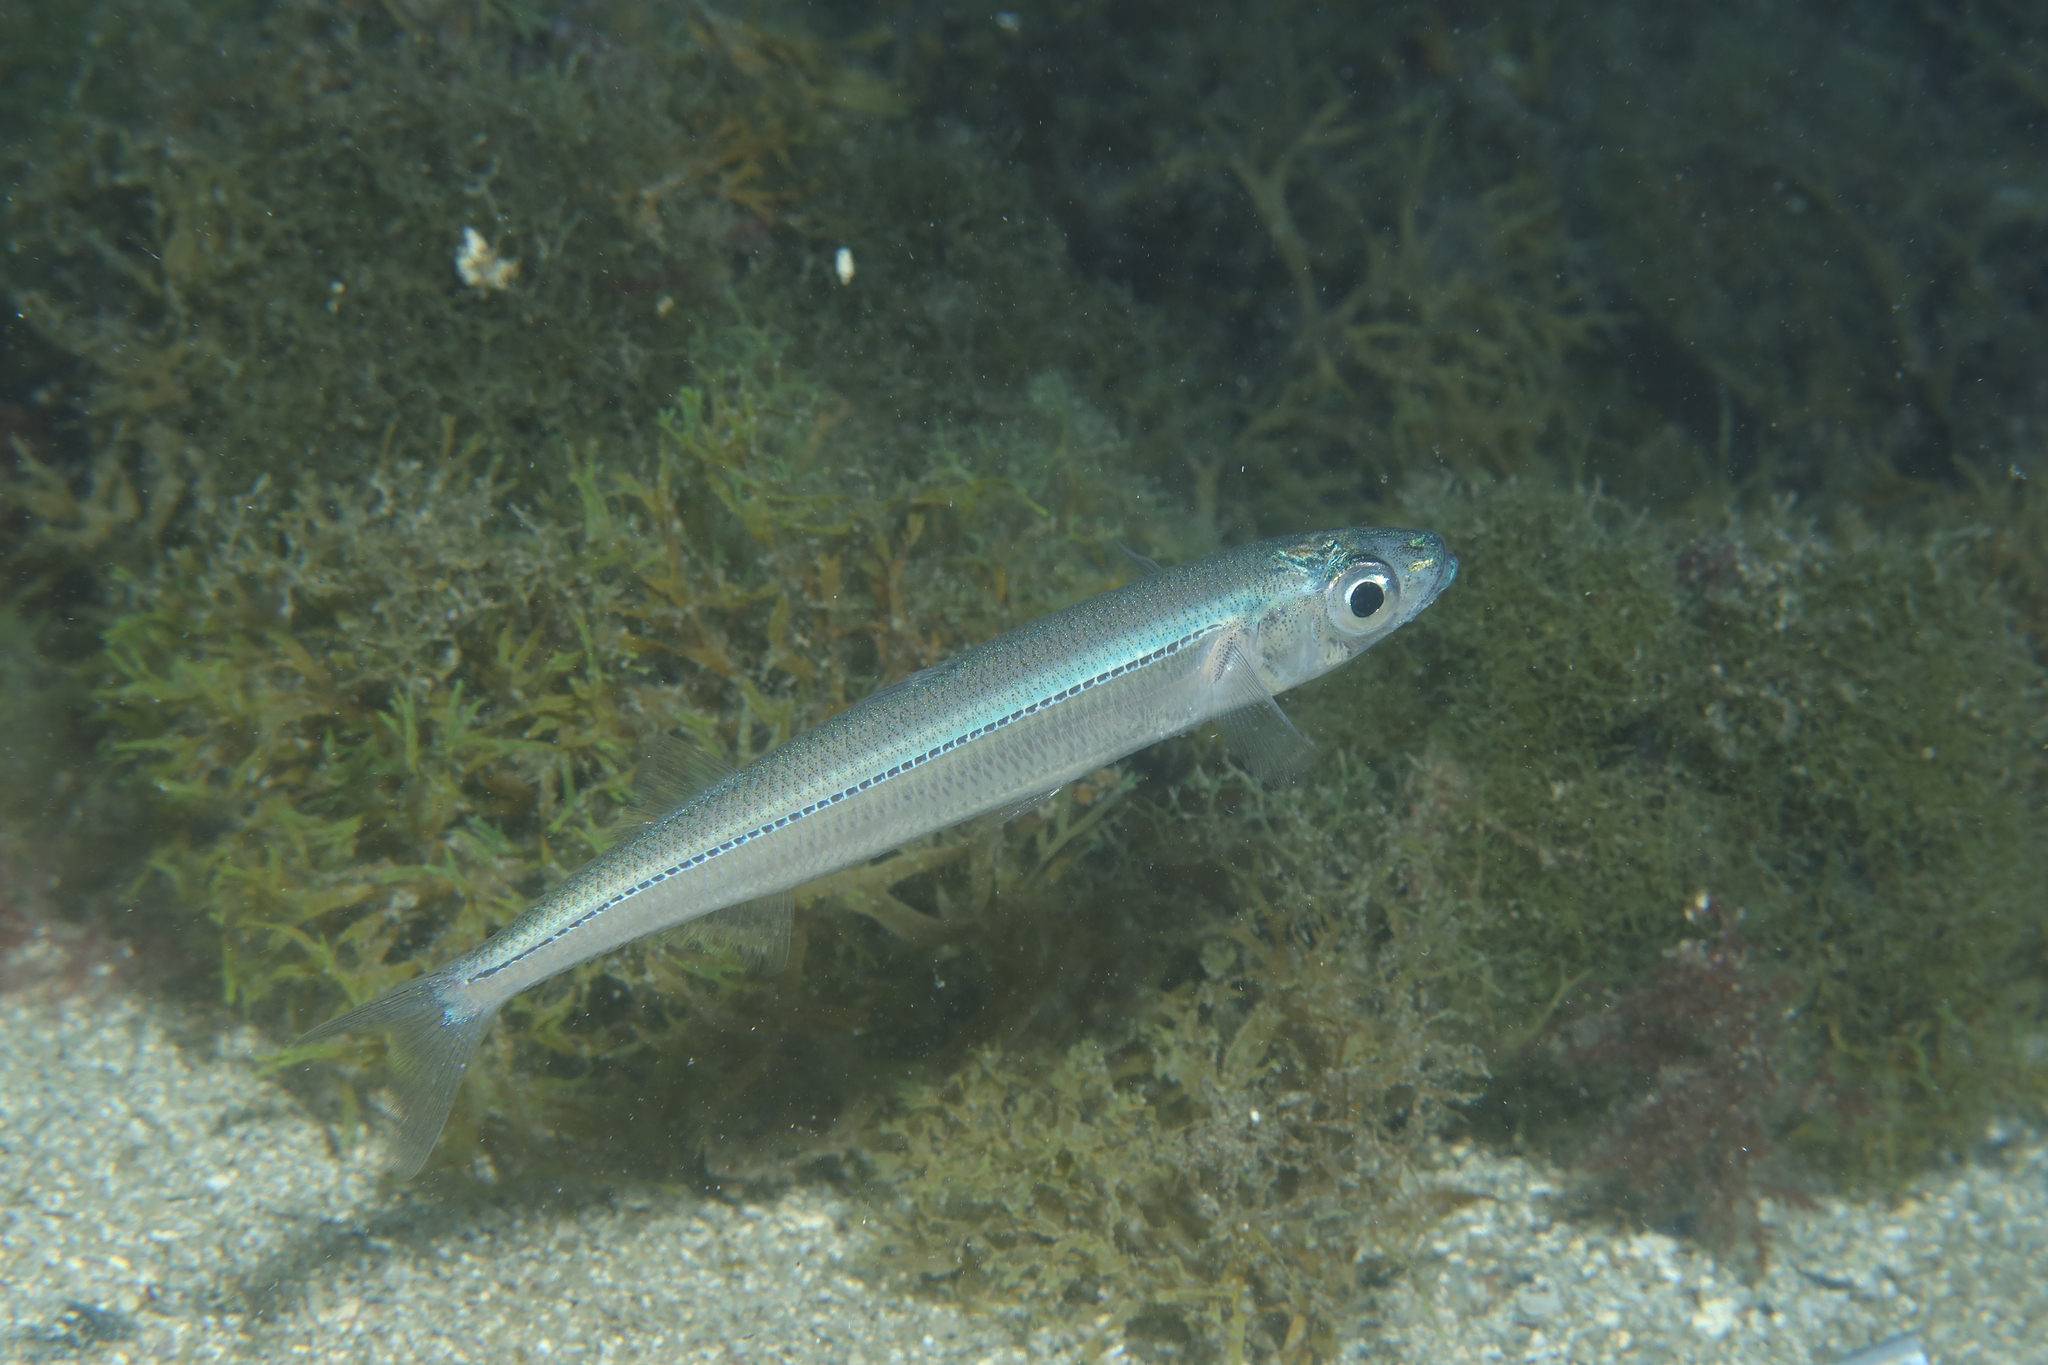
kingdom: Animalia
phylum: Chordata
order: Atheriniformes
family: Atherinidae
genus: Atherina
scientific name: Atherina hepsetus
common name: Mediterranean sand smelt
